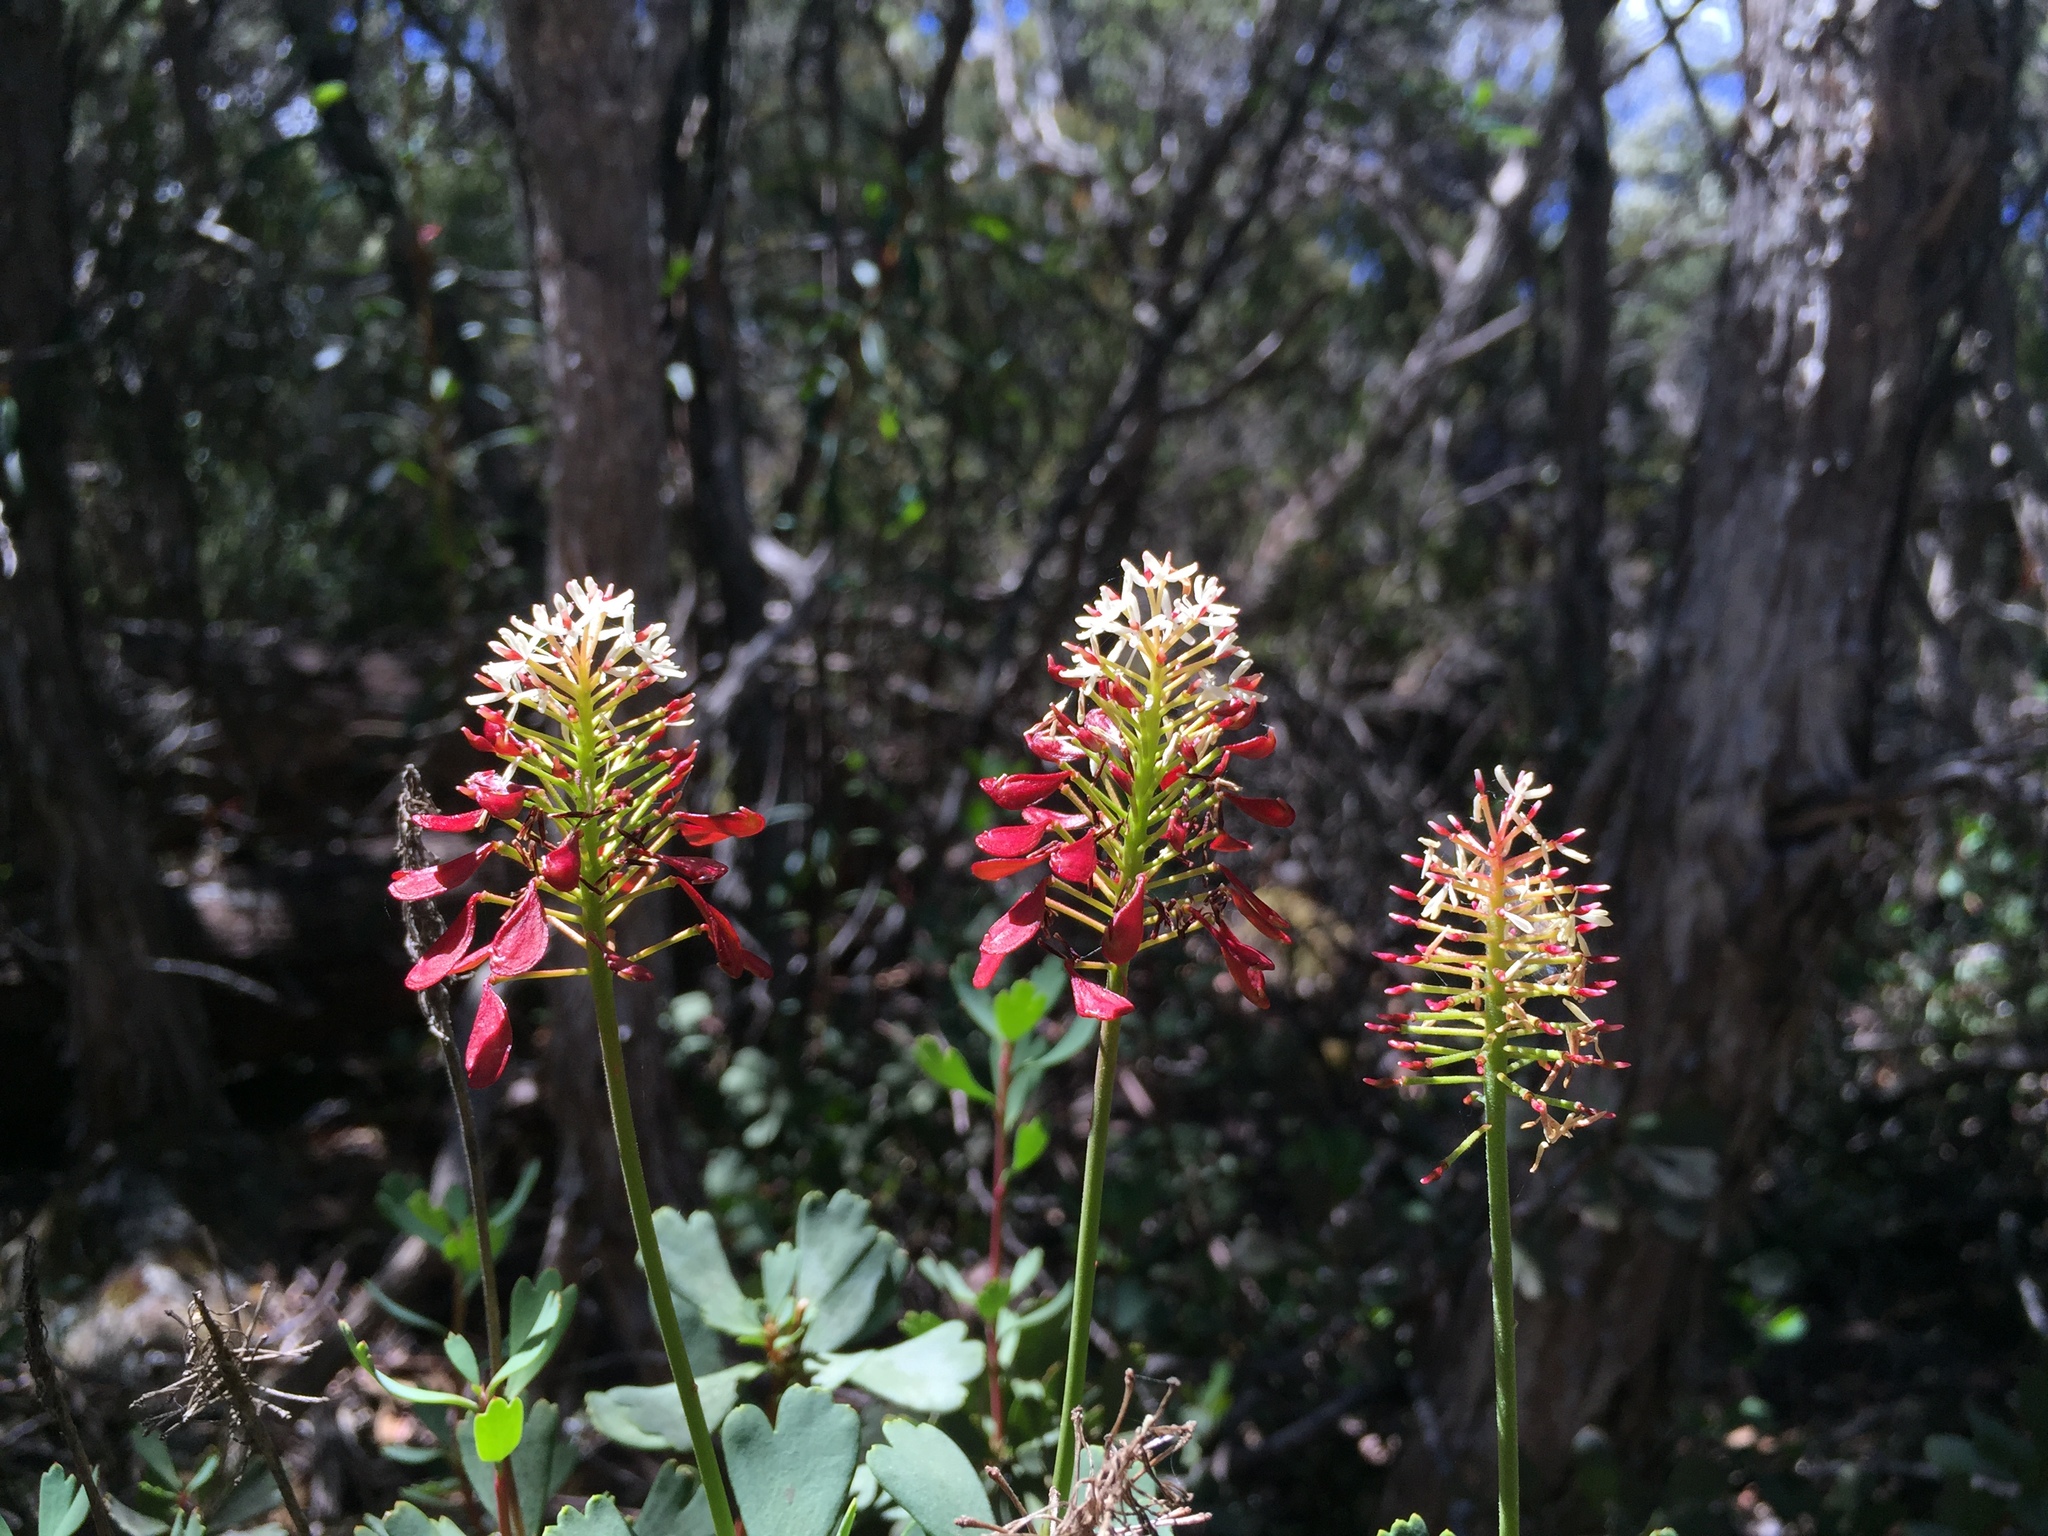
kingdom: Plantae
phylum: Tracheophyta
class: Magnoliopsida
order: Proteales
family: Proteaceae
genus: Bellendena
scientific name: Bellendena montana
